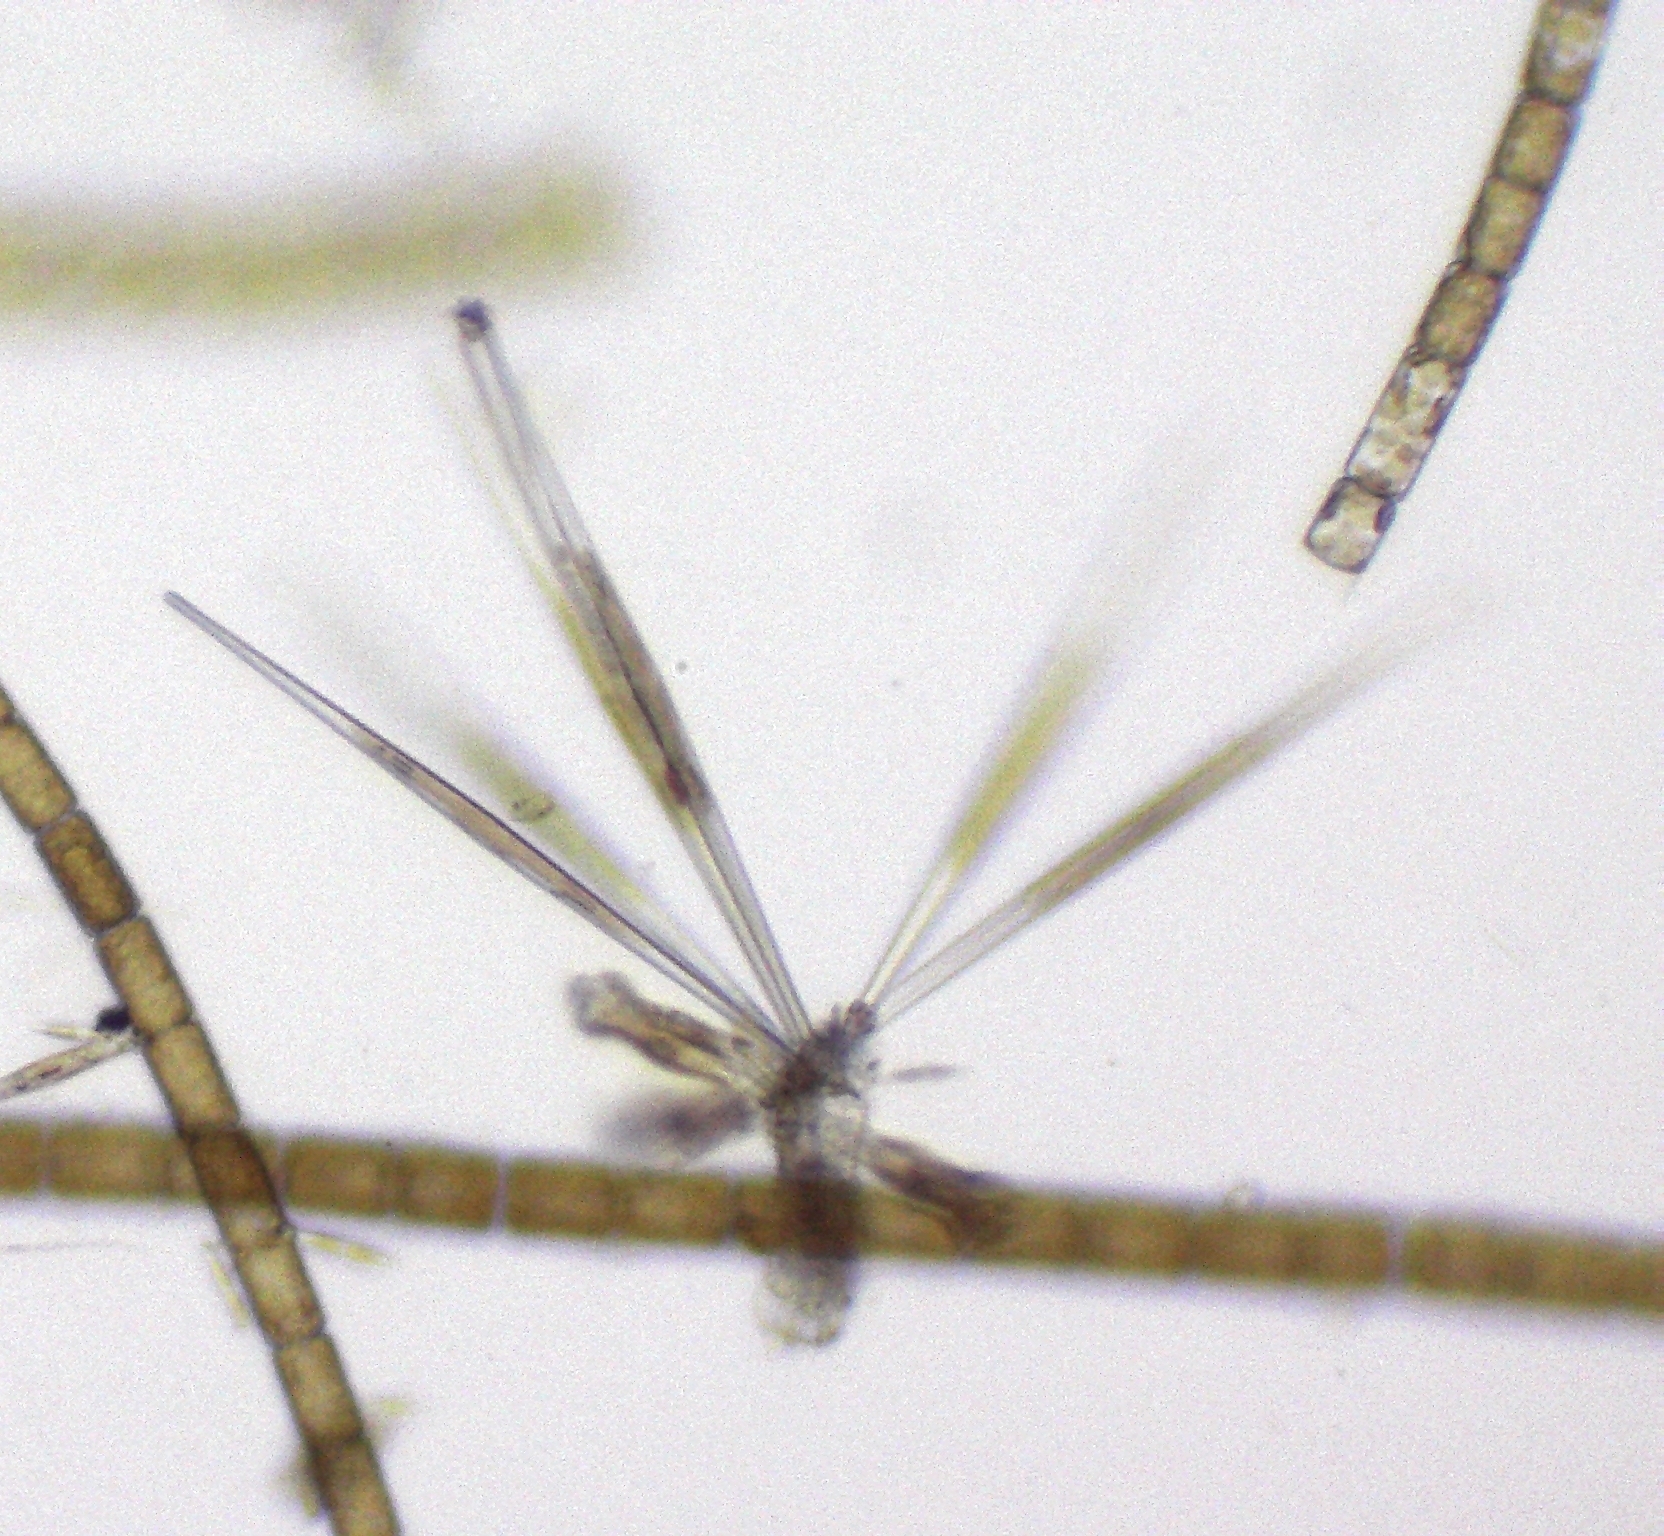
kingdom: Chromista
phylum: Ochrophyta
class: Bacillariophyceae
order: Melosirales
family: Melosiraceae
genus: Melosira
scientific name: Melosira varians
